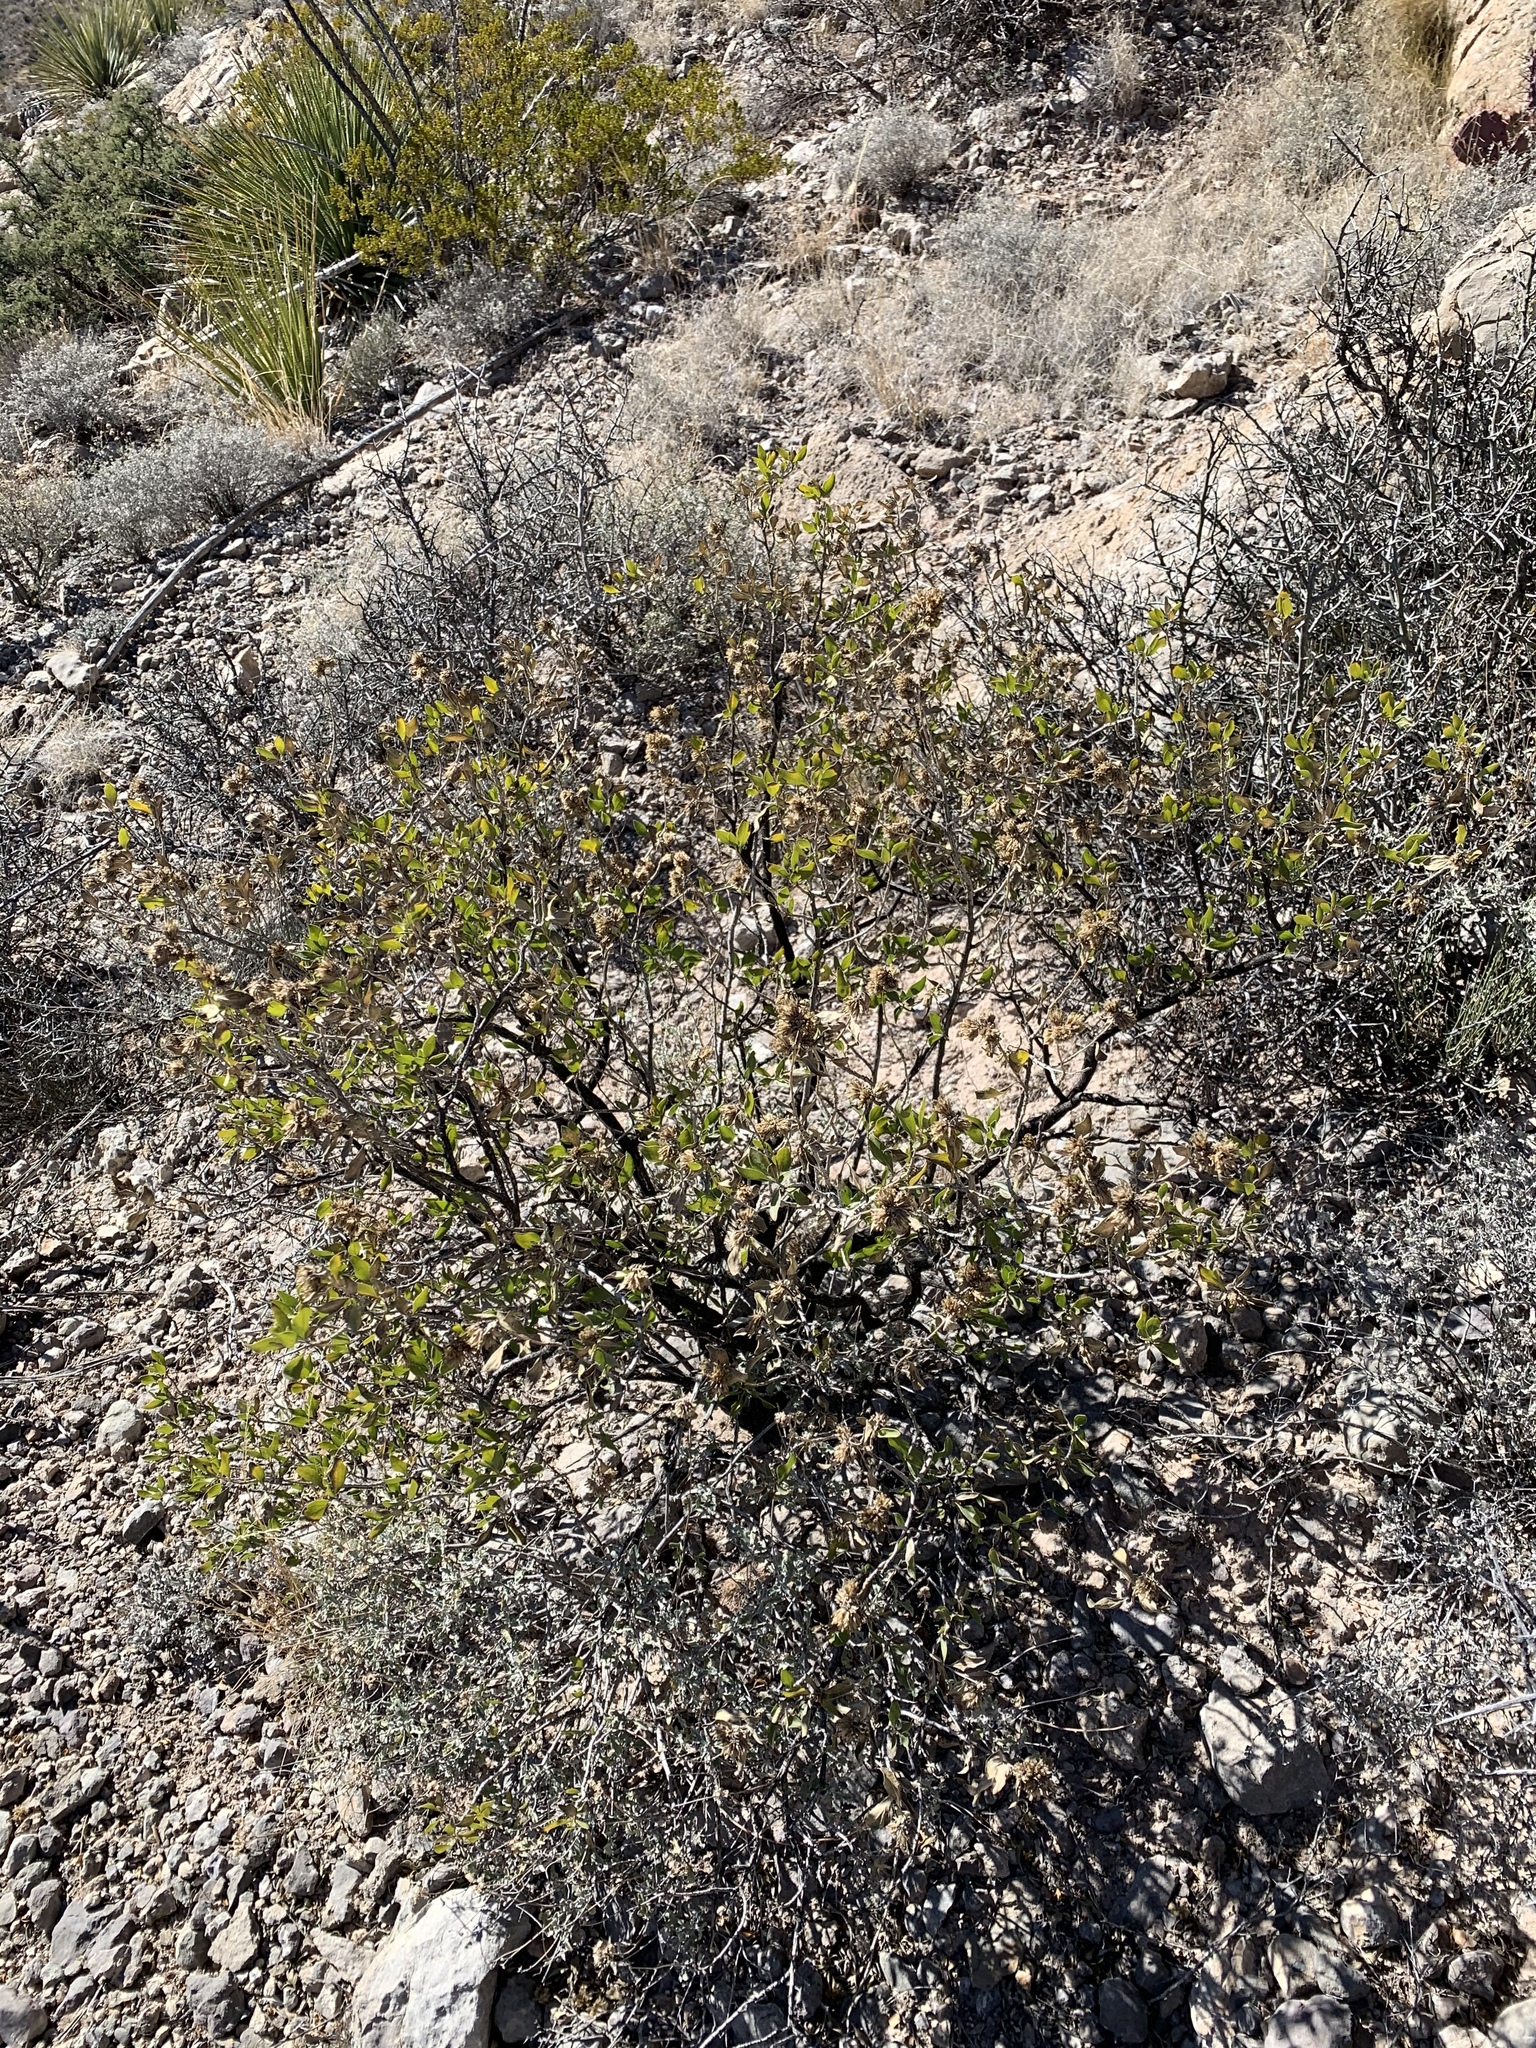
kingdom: Plantae
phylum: Tracheophyta
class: Magnoliopsida
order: Asterales
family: Asteraceae
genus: Flourensia
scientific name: Flourensia cernua
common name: Varnishbush
